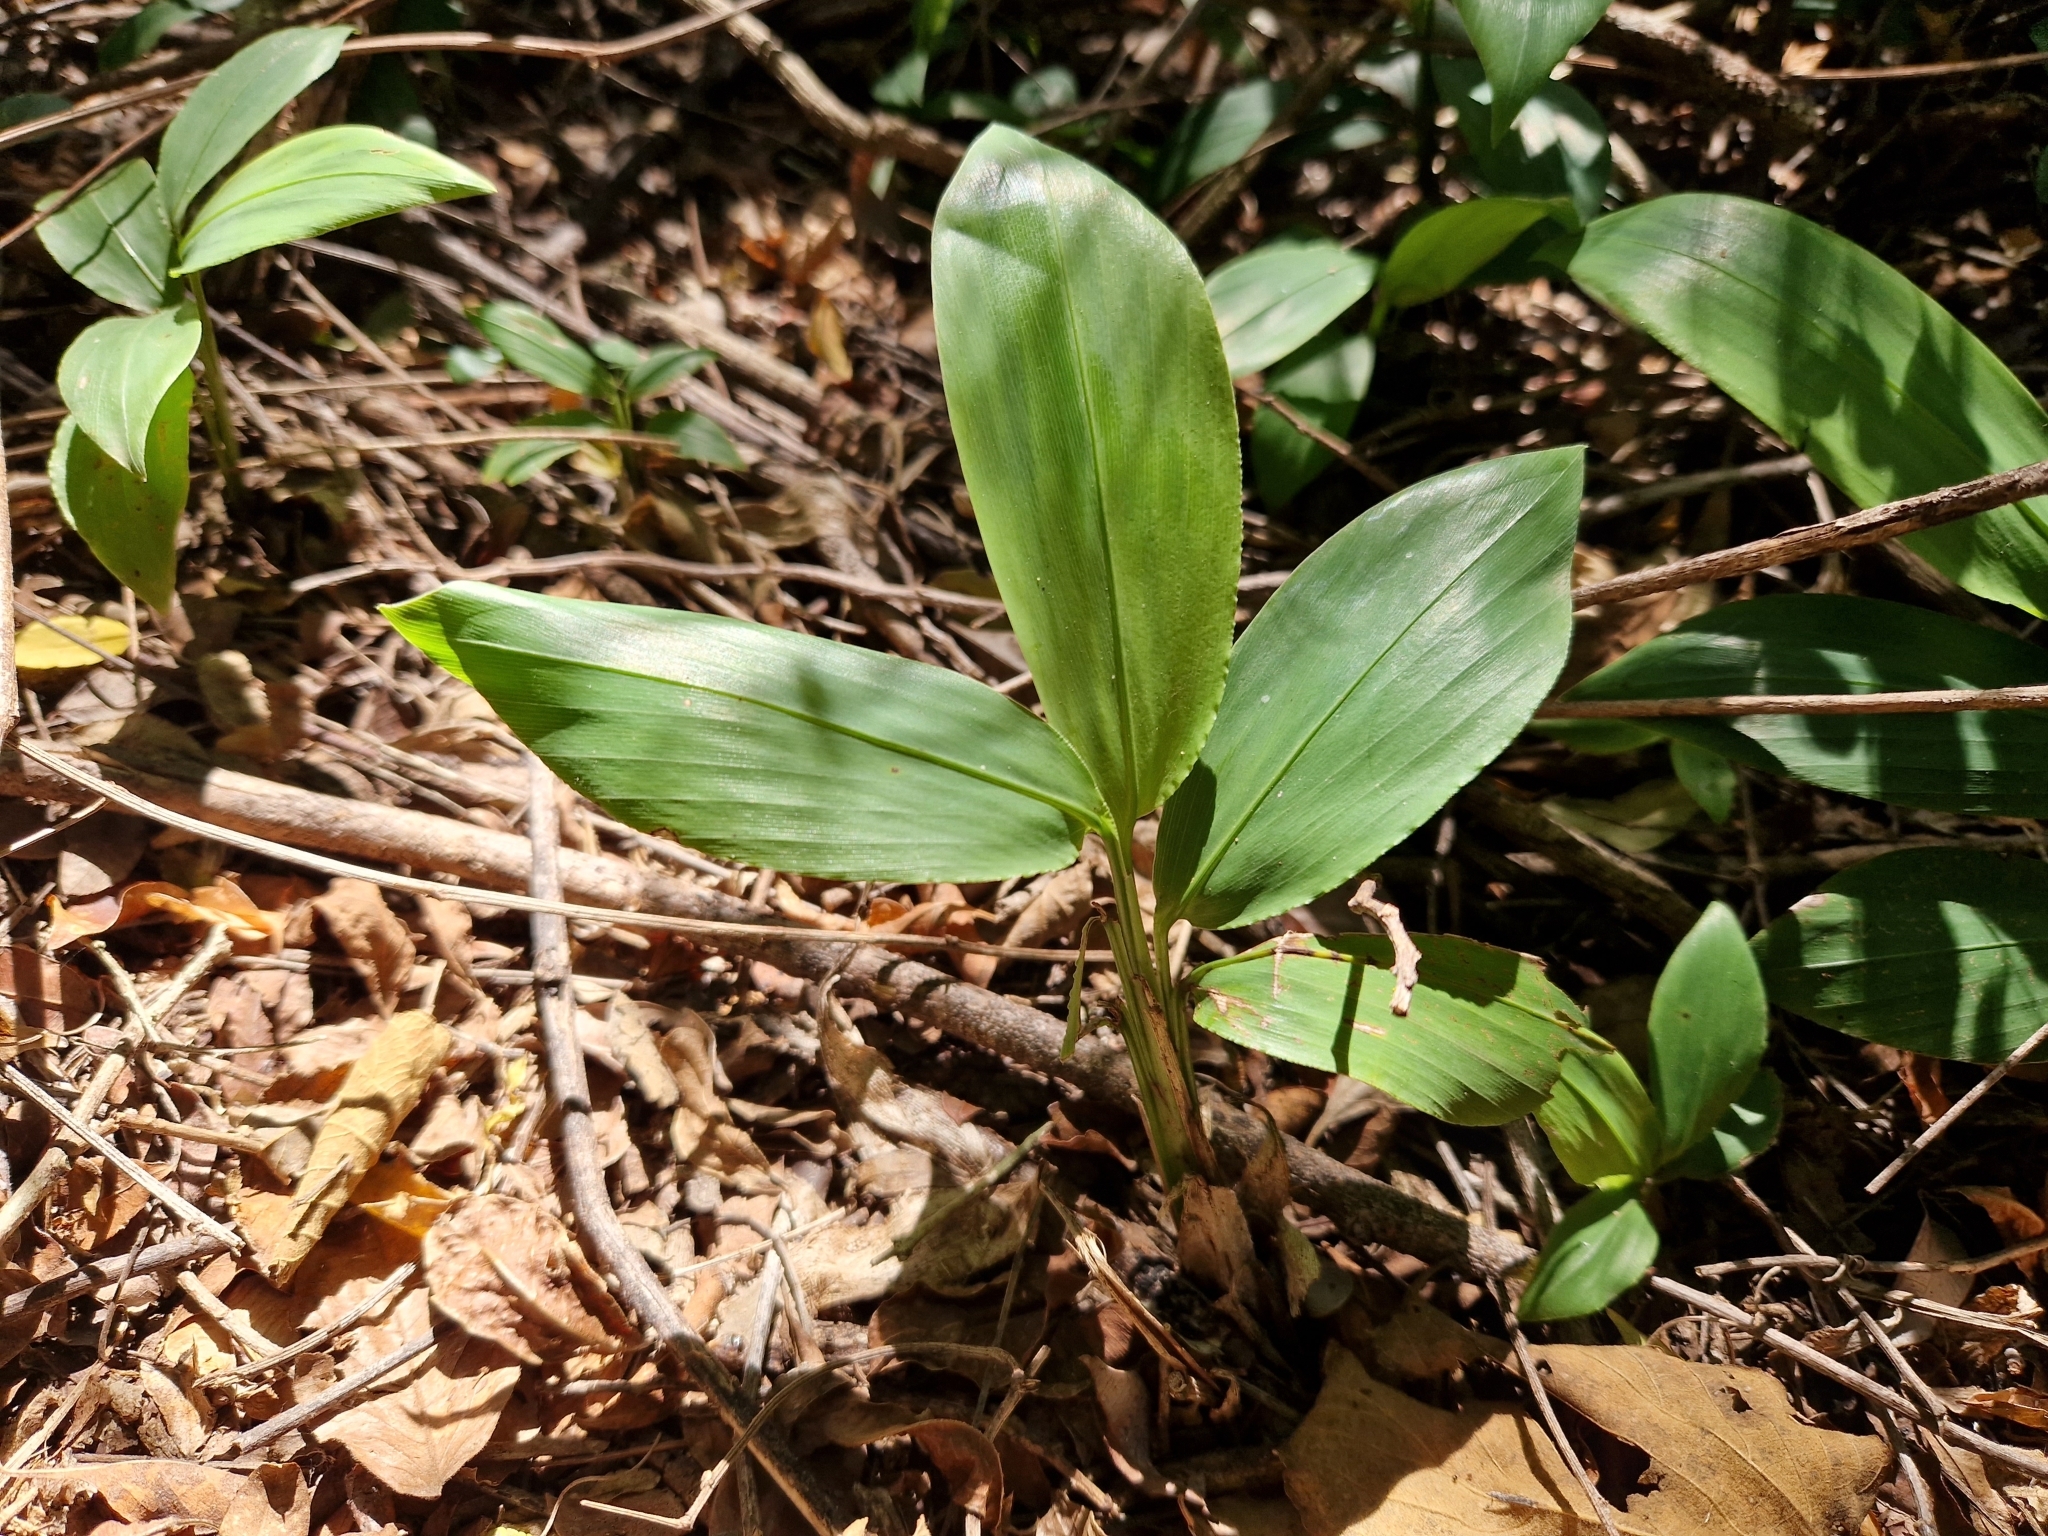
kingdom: Plantae
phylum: Tracheophyta
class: Liliopsida
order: Poales
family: Poaceae
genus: Pharus
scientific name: Pharus latifolius
